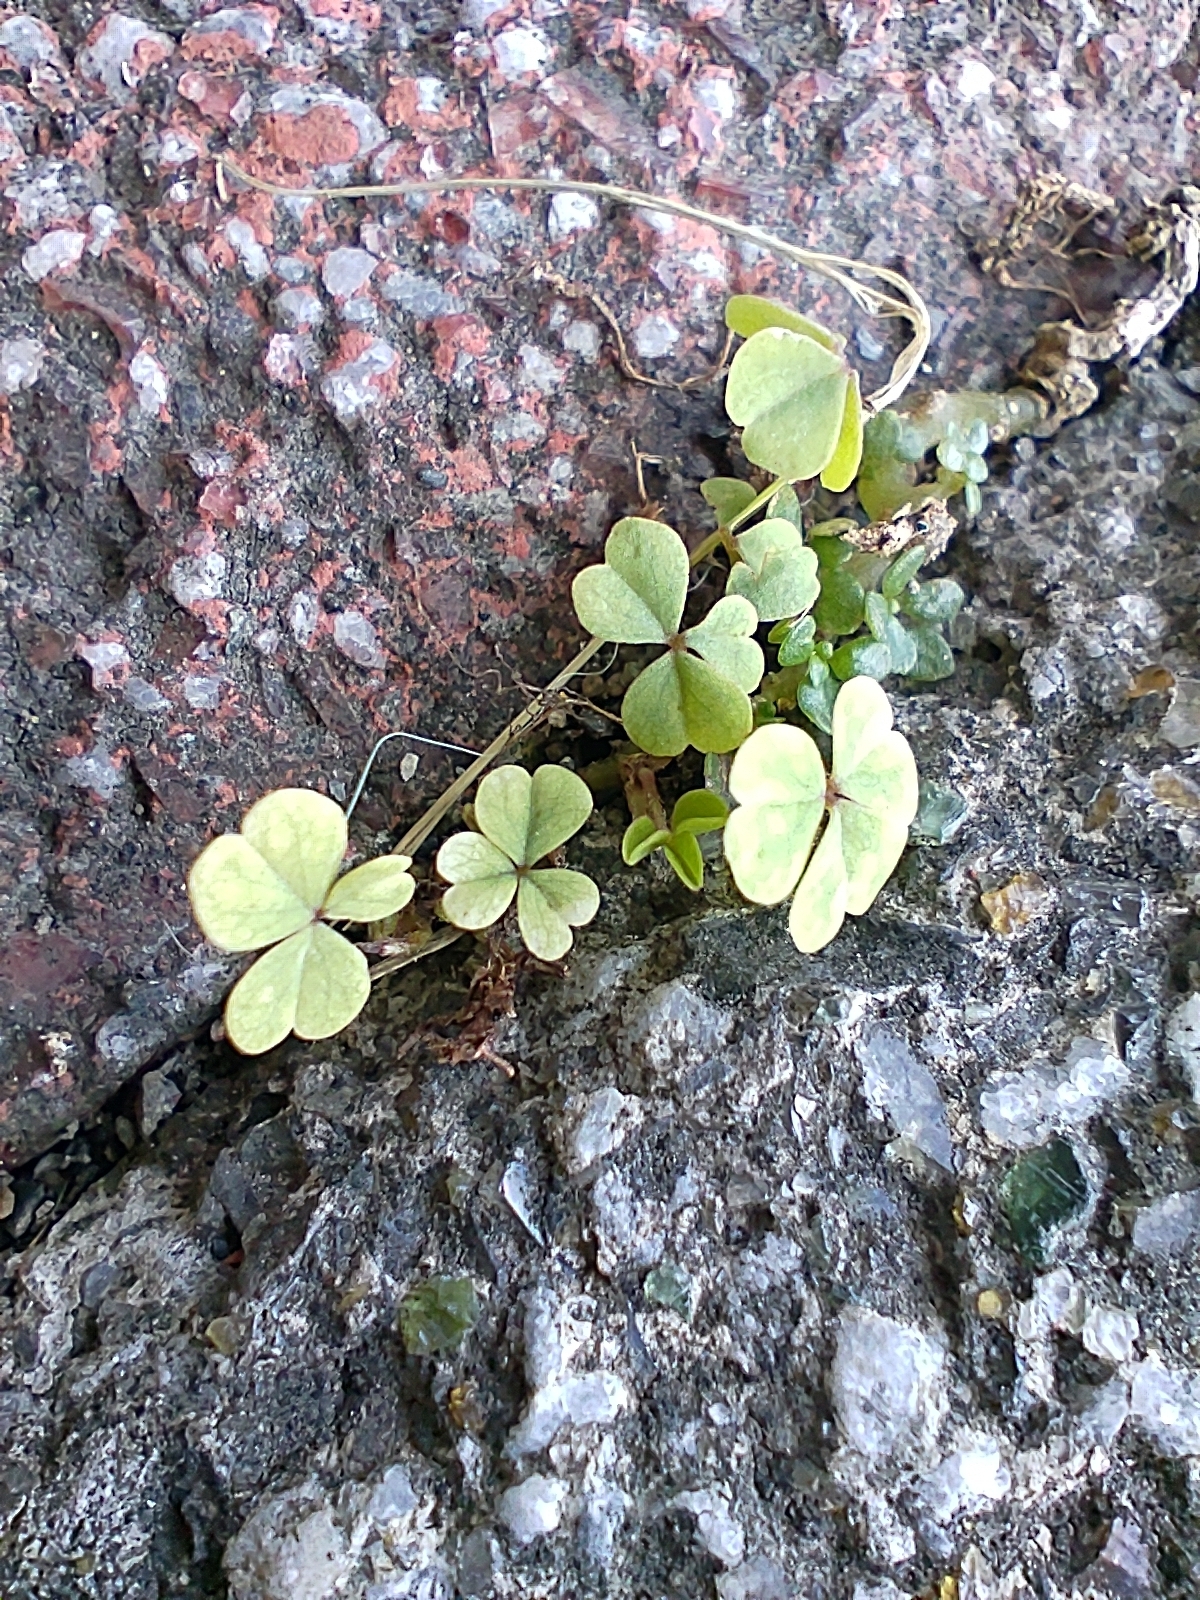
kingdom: Plantae
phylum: Tracheophyta
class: Magnoliopsida
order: Oxalidales
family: Oxalidaceae
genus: Oxalis
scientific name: Oxalis corniculata
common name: Procumbent yellow-sorrel
